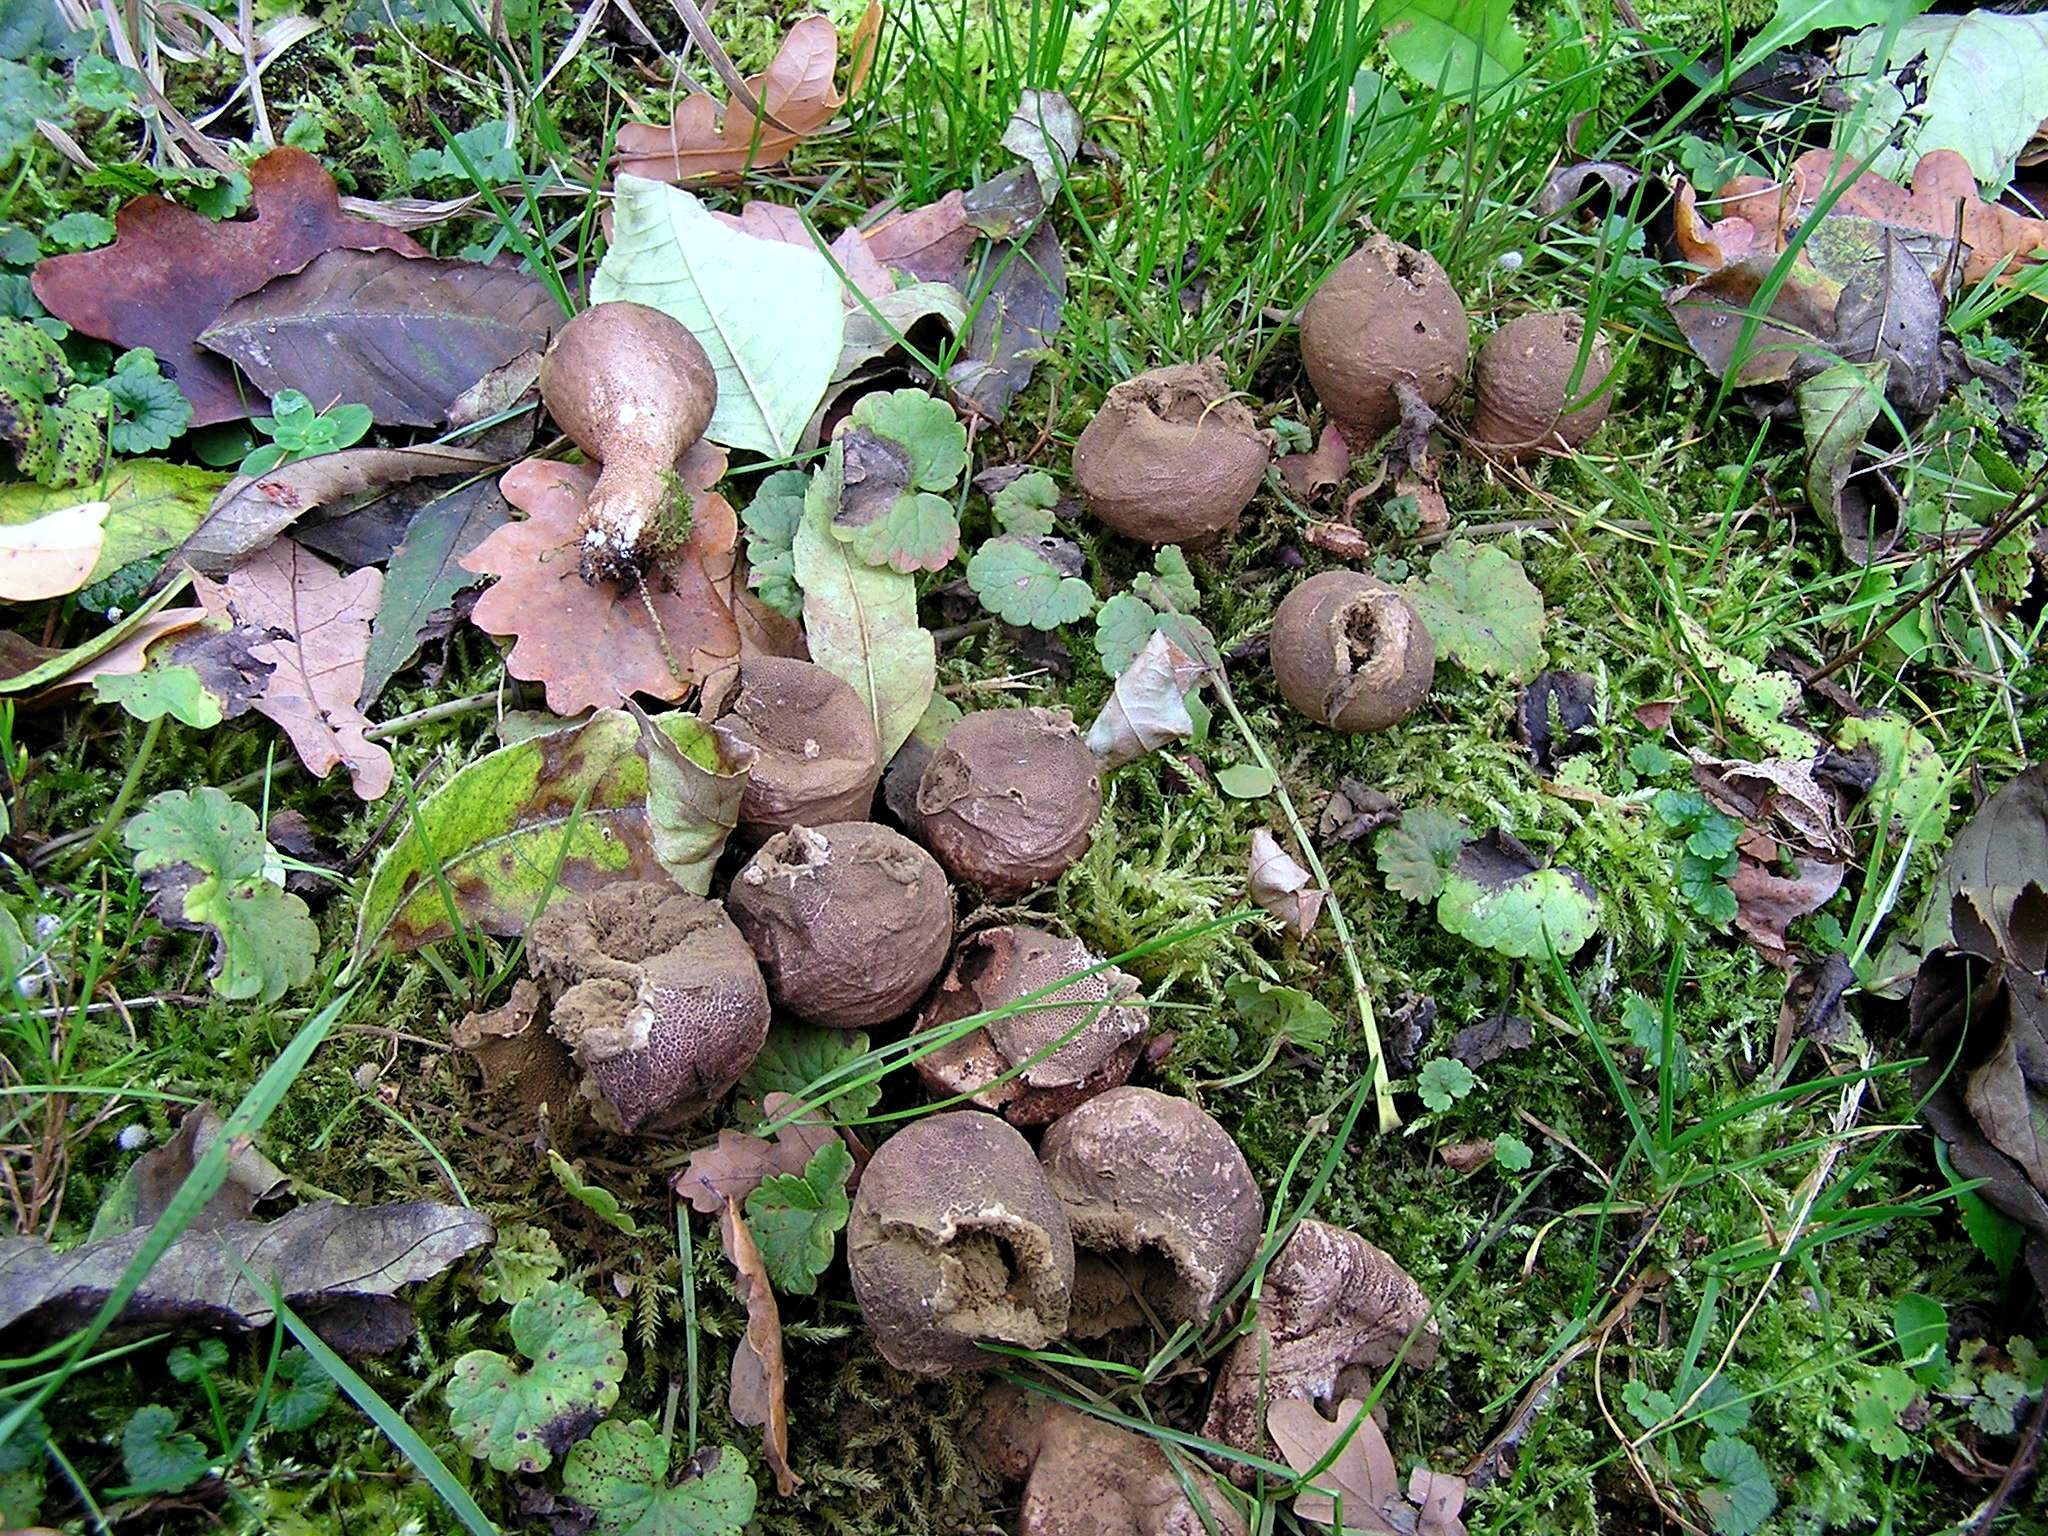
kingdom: Fungi
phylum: Basidiomycota
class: Agaricomycetes
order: Agaricales
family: Lycoperdaceae
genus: Apioperdon
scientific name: Apioperdon pyriforme
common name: Pear-shaped puffball
